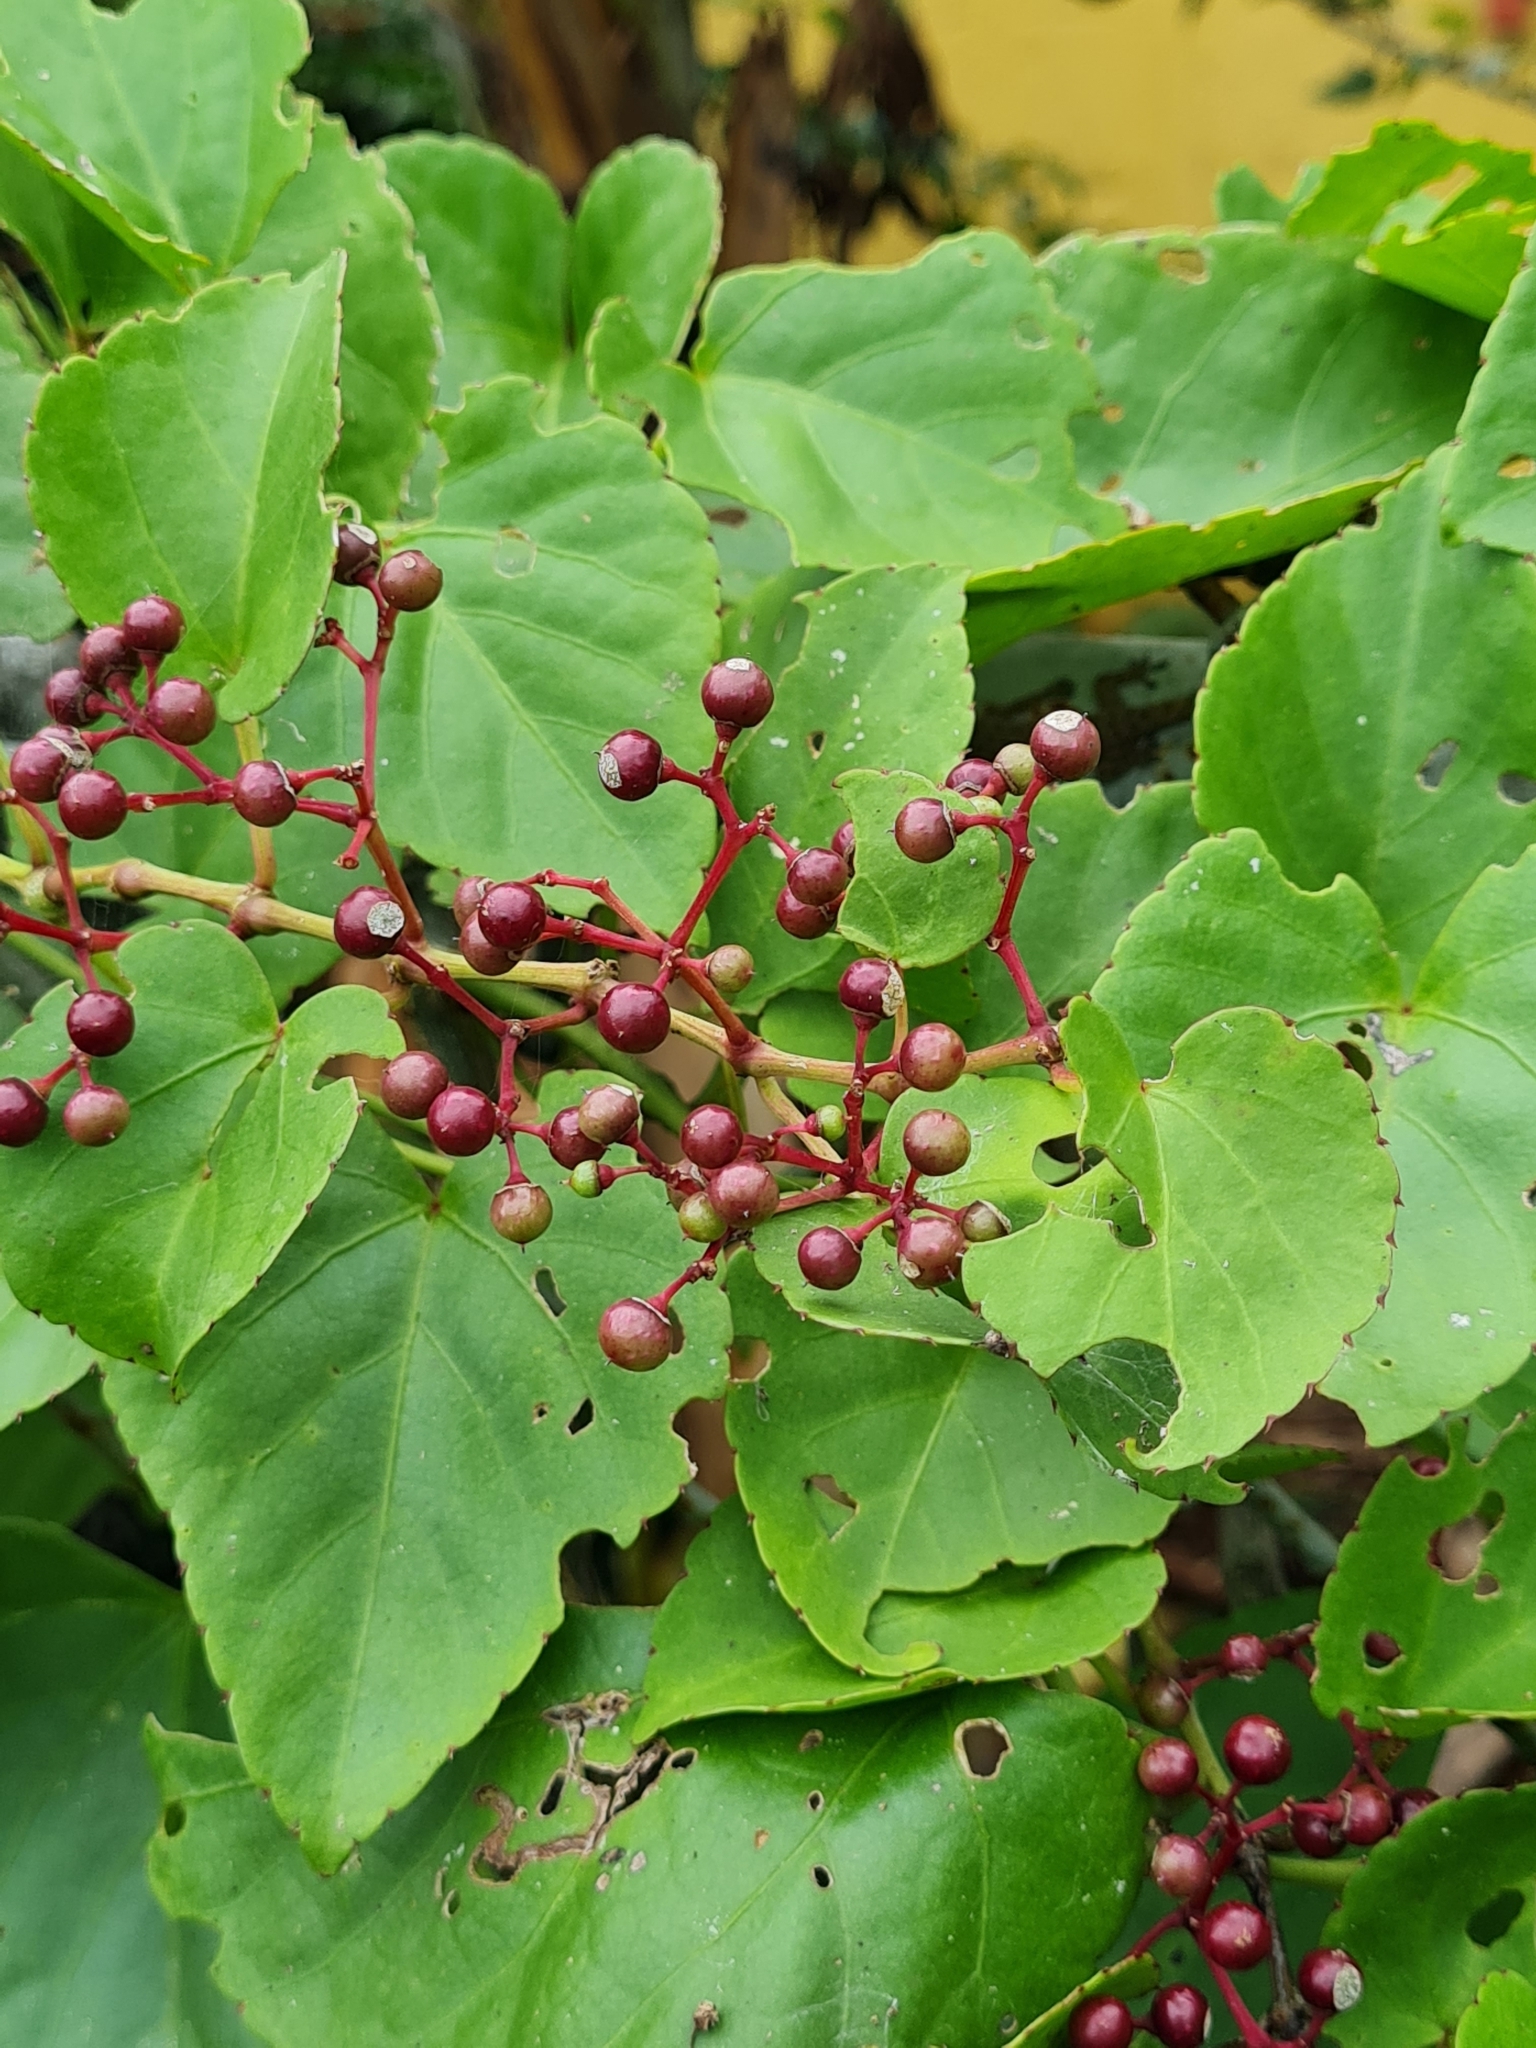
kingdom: Plantae
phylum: Tracheophyta
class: Magnoliopsida
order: Vitales
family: Vitaceae
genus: Cissus
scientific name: Cissus erosa
